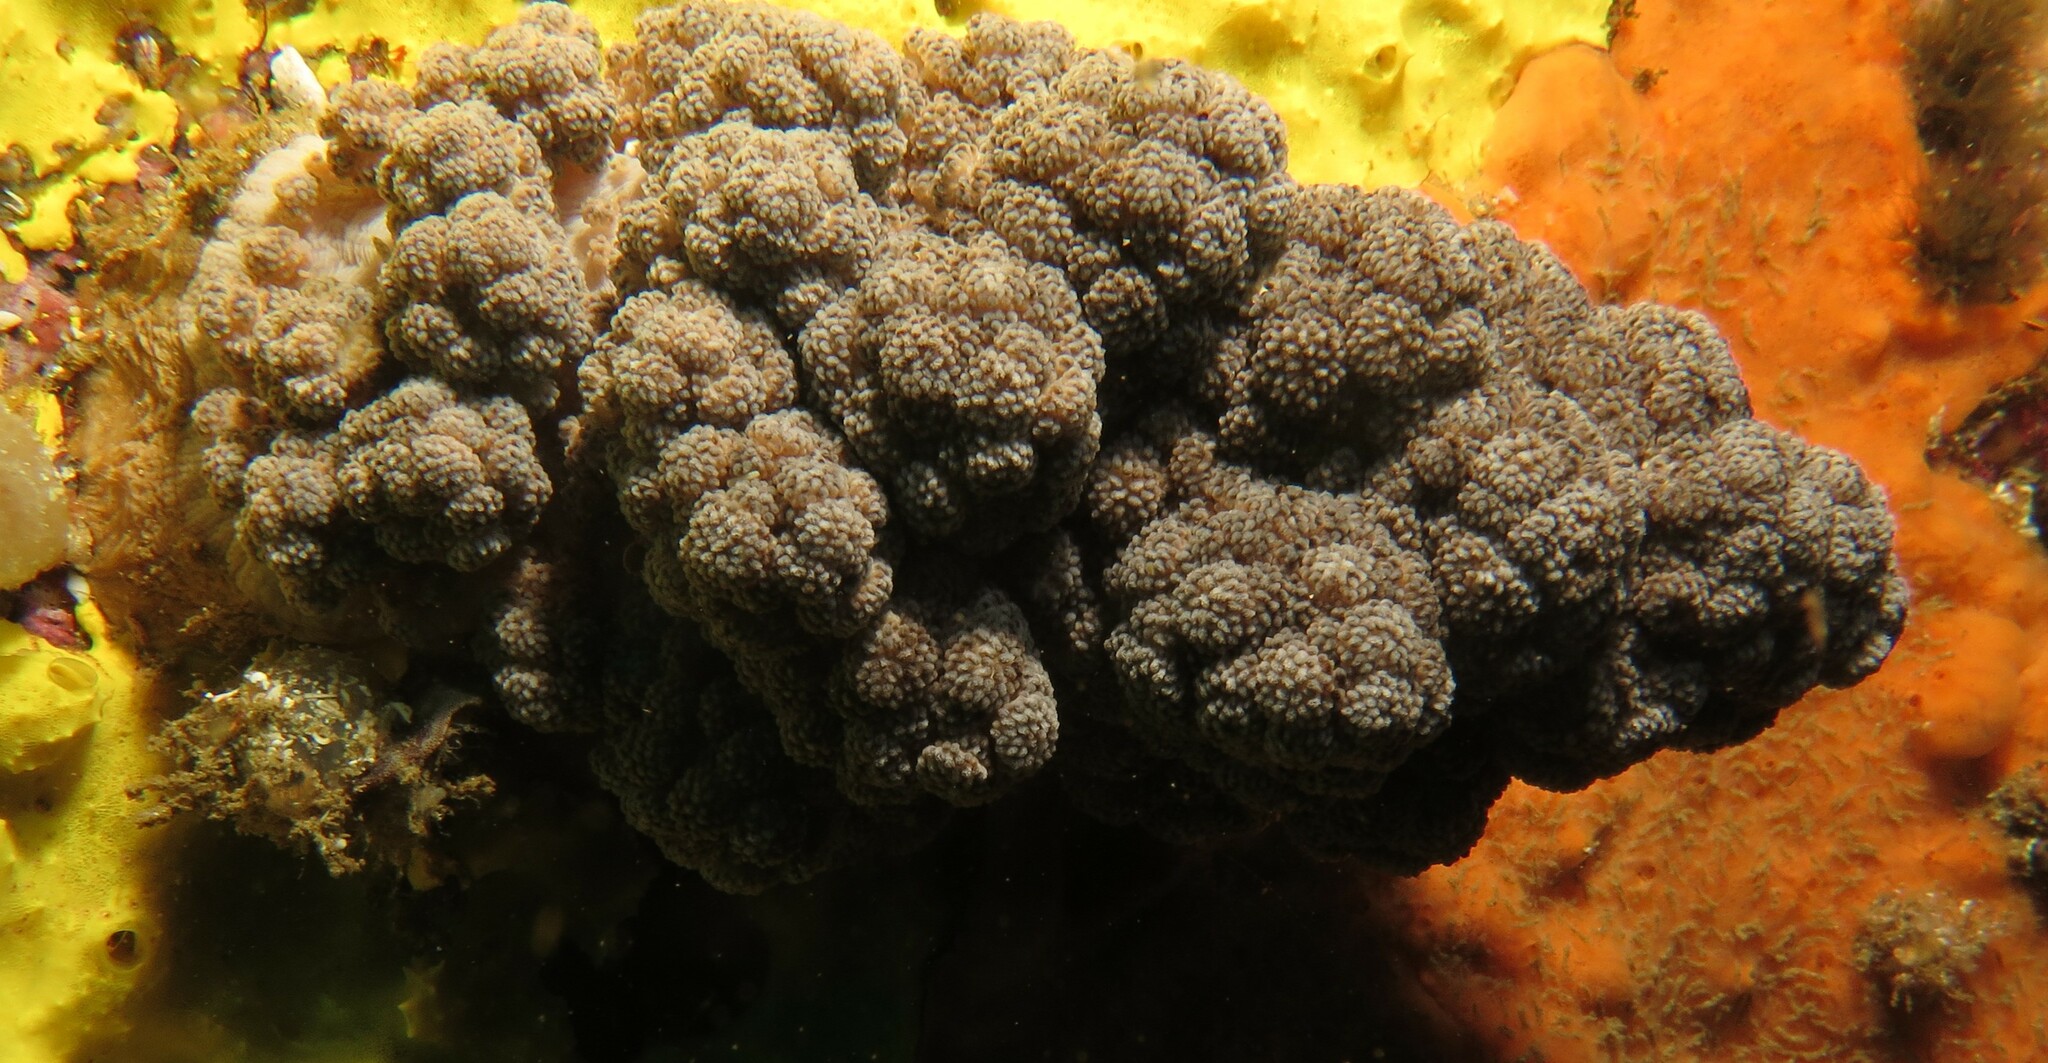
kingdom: Animalia
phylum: Cnidaria
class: Anthozoa
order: Malacalcyonacea
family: Capnellidae
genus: Eunephthya
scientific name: Eunephthya thyrsoidea
